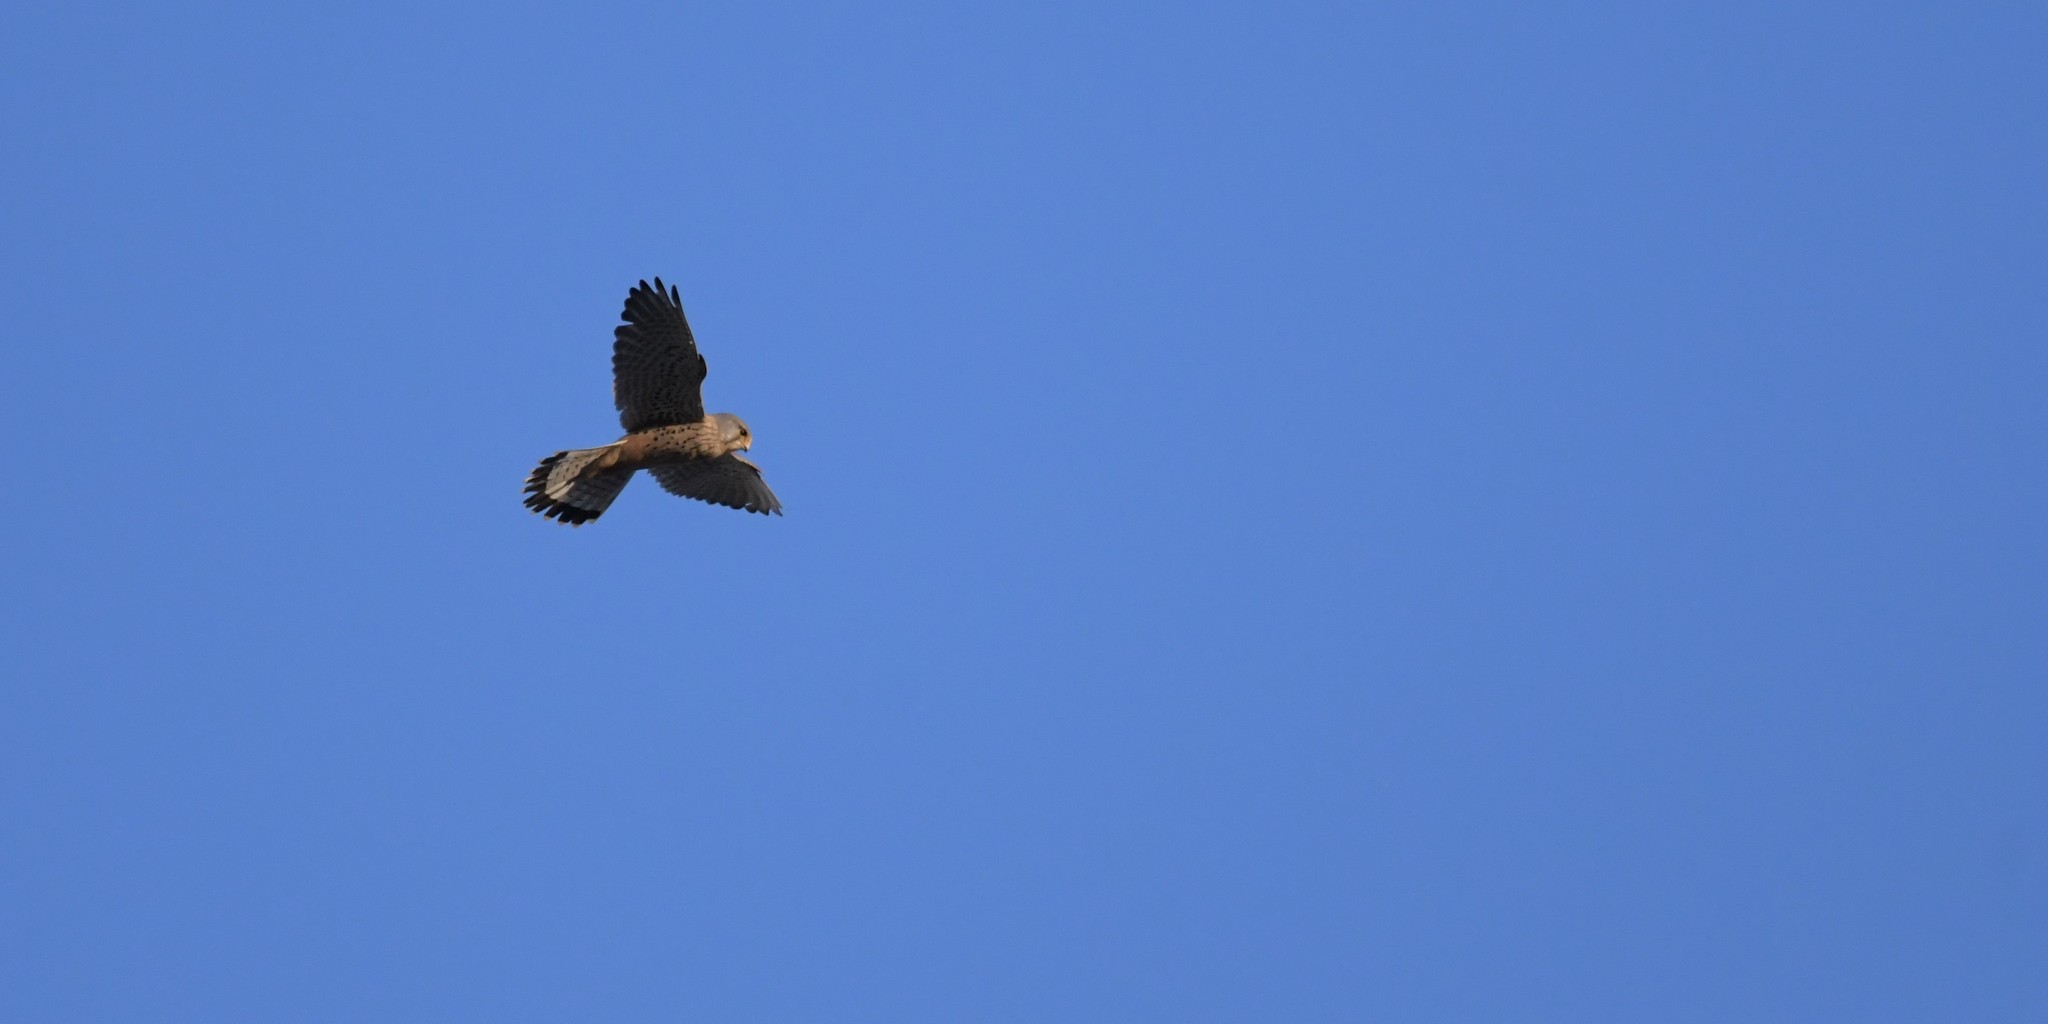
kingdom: Animalia
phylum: Chordata
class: Aves
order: Falconiformes
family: Falconidae
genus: Falco
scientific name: Falco tinnunculus
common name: Common kestrel
